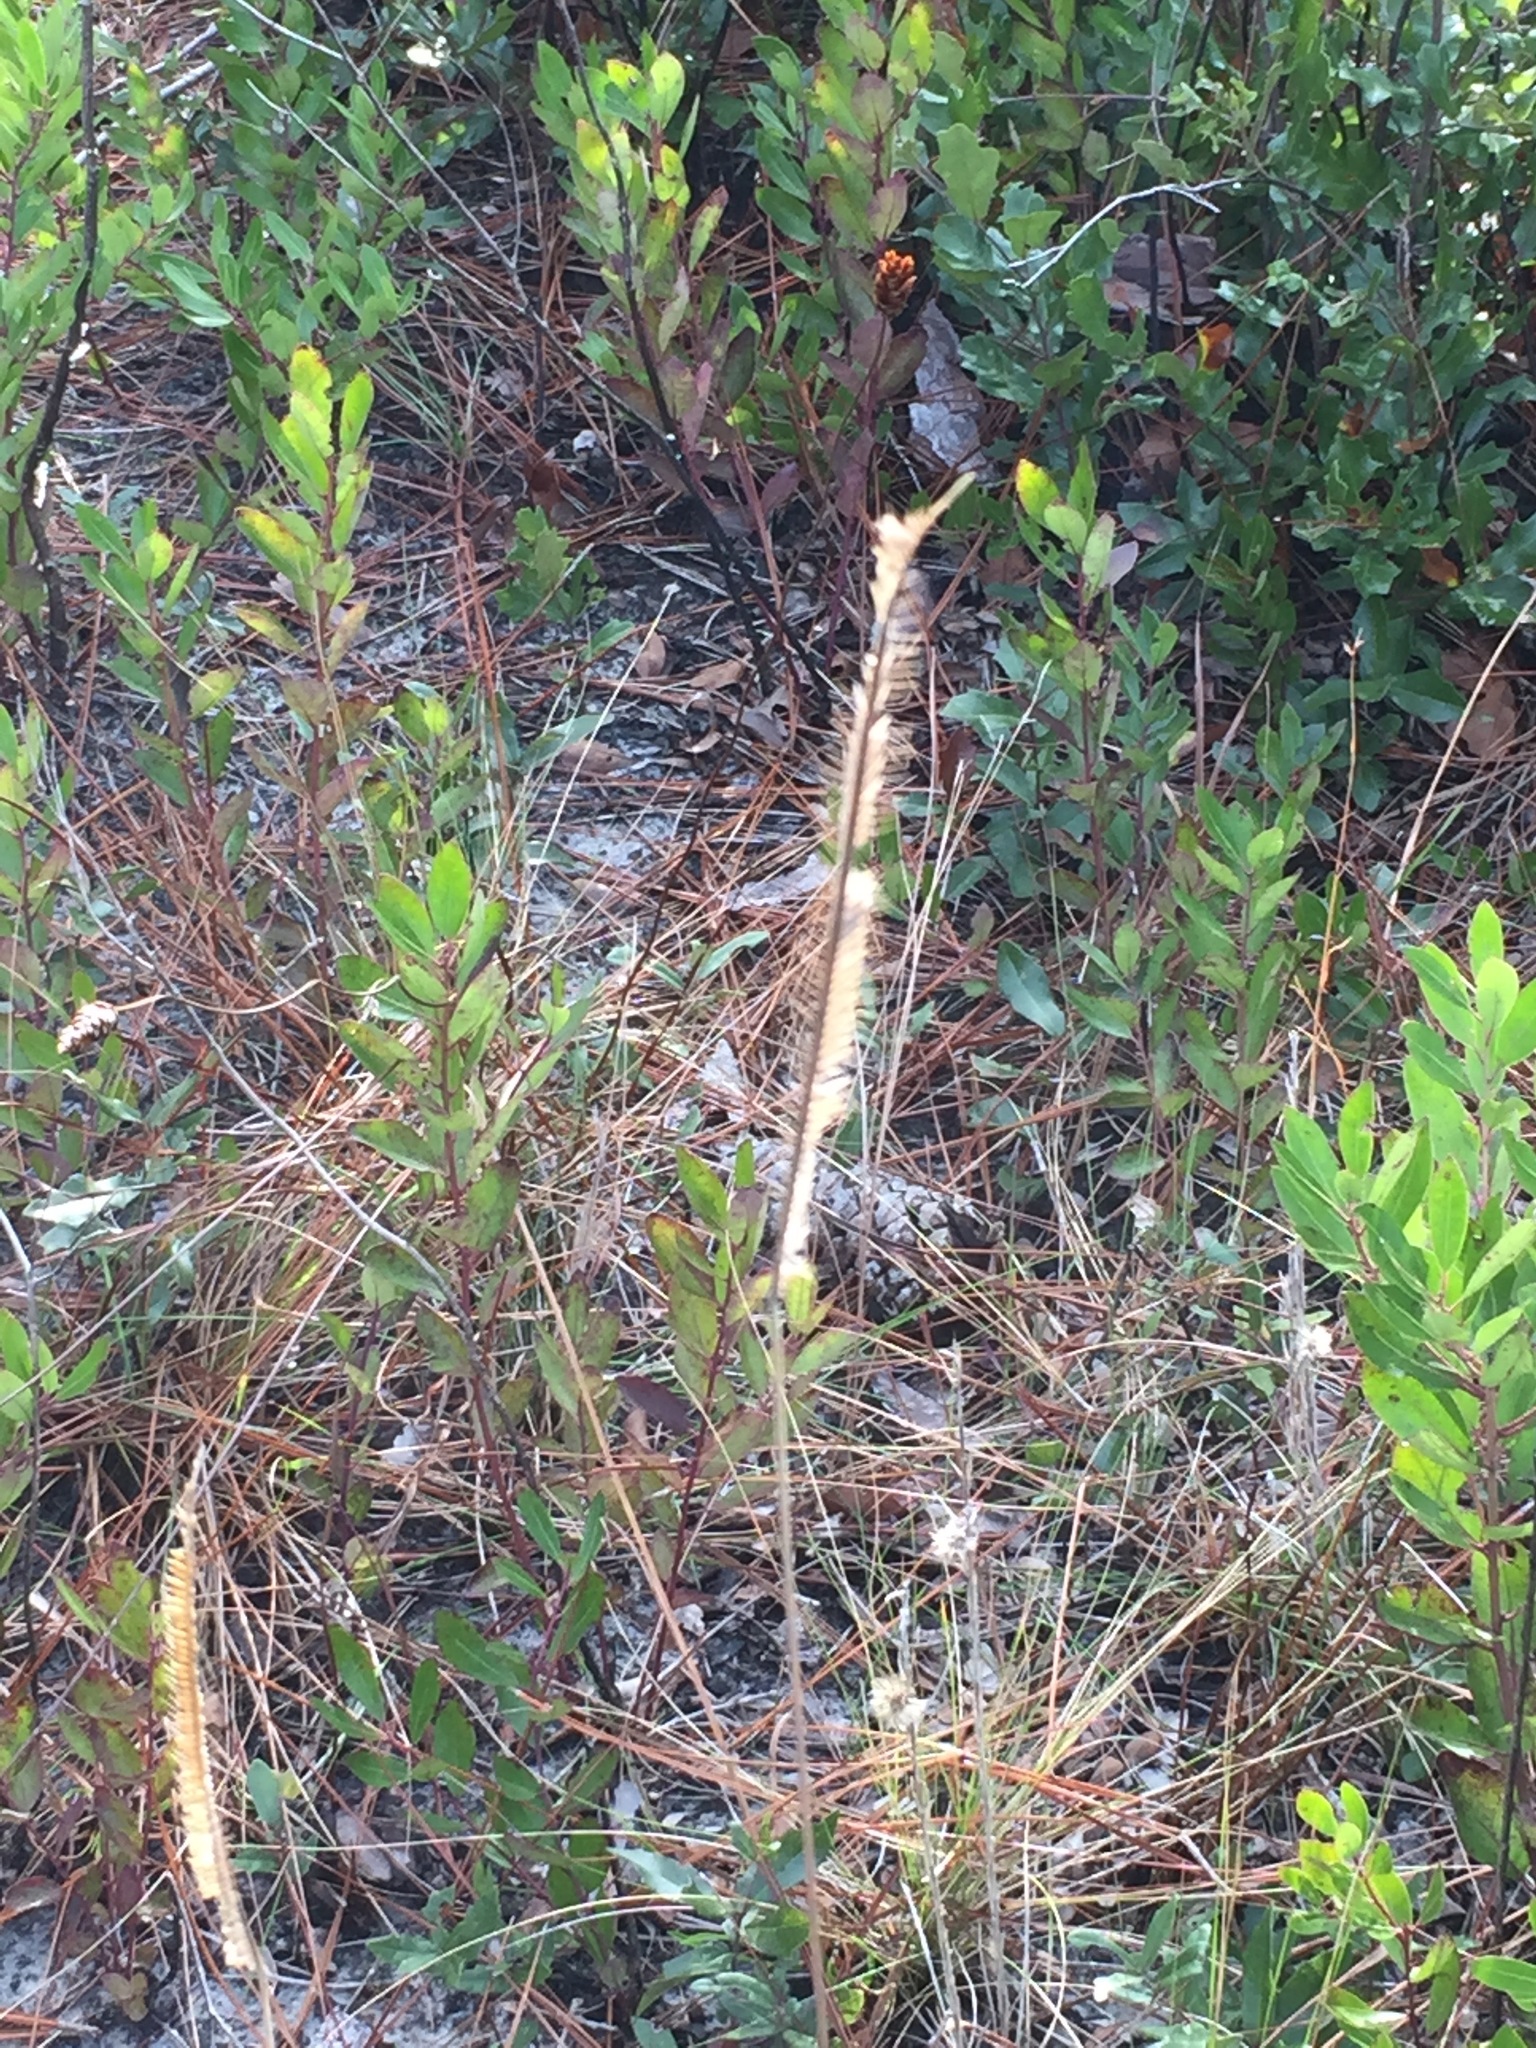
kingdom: Plantae
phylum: Tracheophyta
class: Liliopsida
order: Poales
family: Poaceae
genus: Ctenium
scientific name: Ctenium aromaticum
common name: Toothache grass
